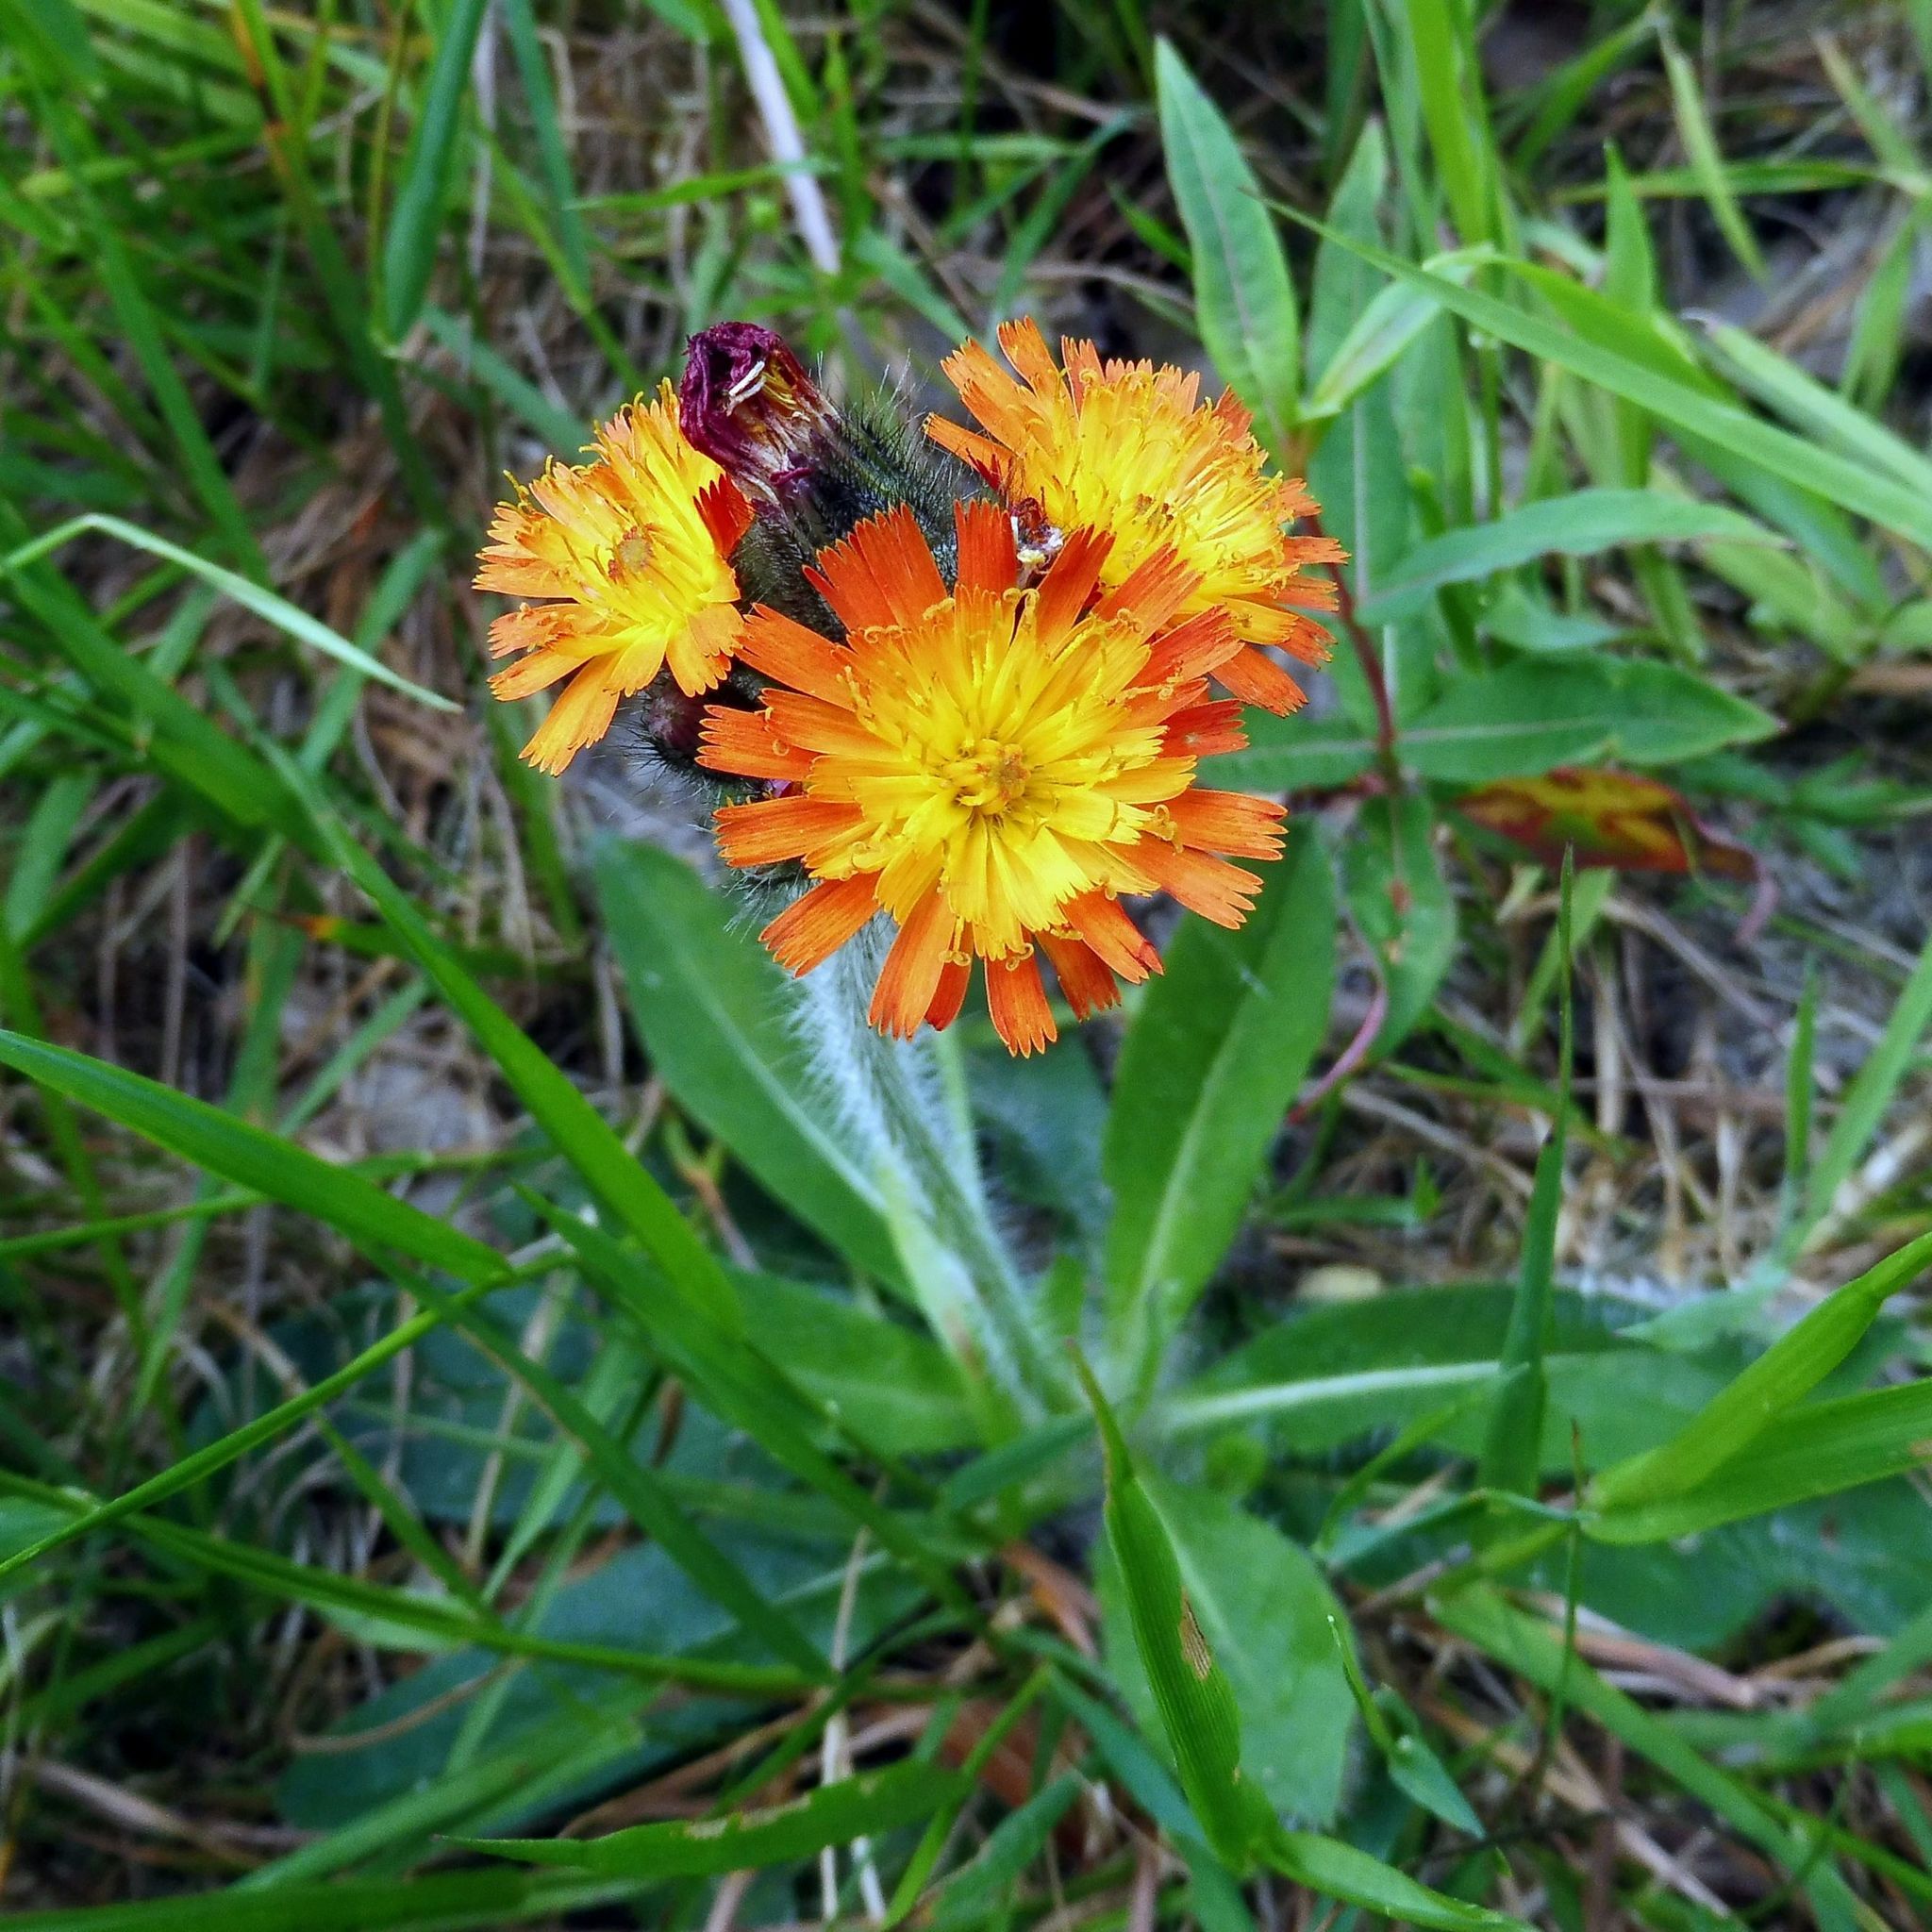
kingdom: Plantae
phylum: Tracheophyta
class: Magnoliopsida
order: Asterales
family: Asteraceae
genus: Pilosella
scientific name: Pilosella aurantiaca
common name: Fox-and-cubs
